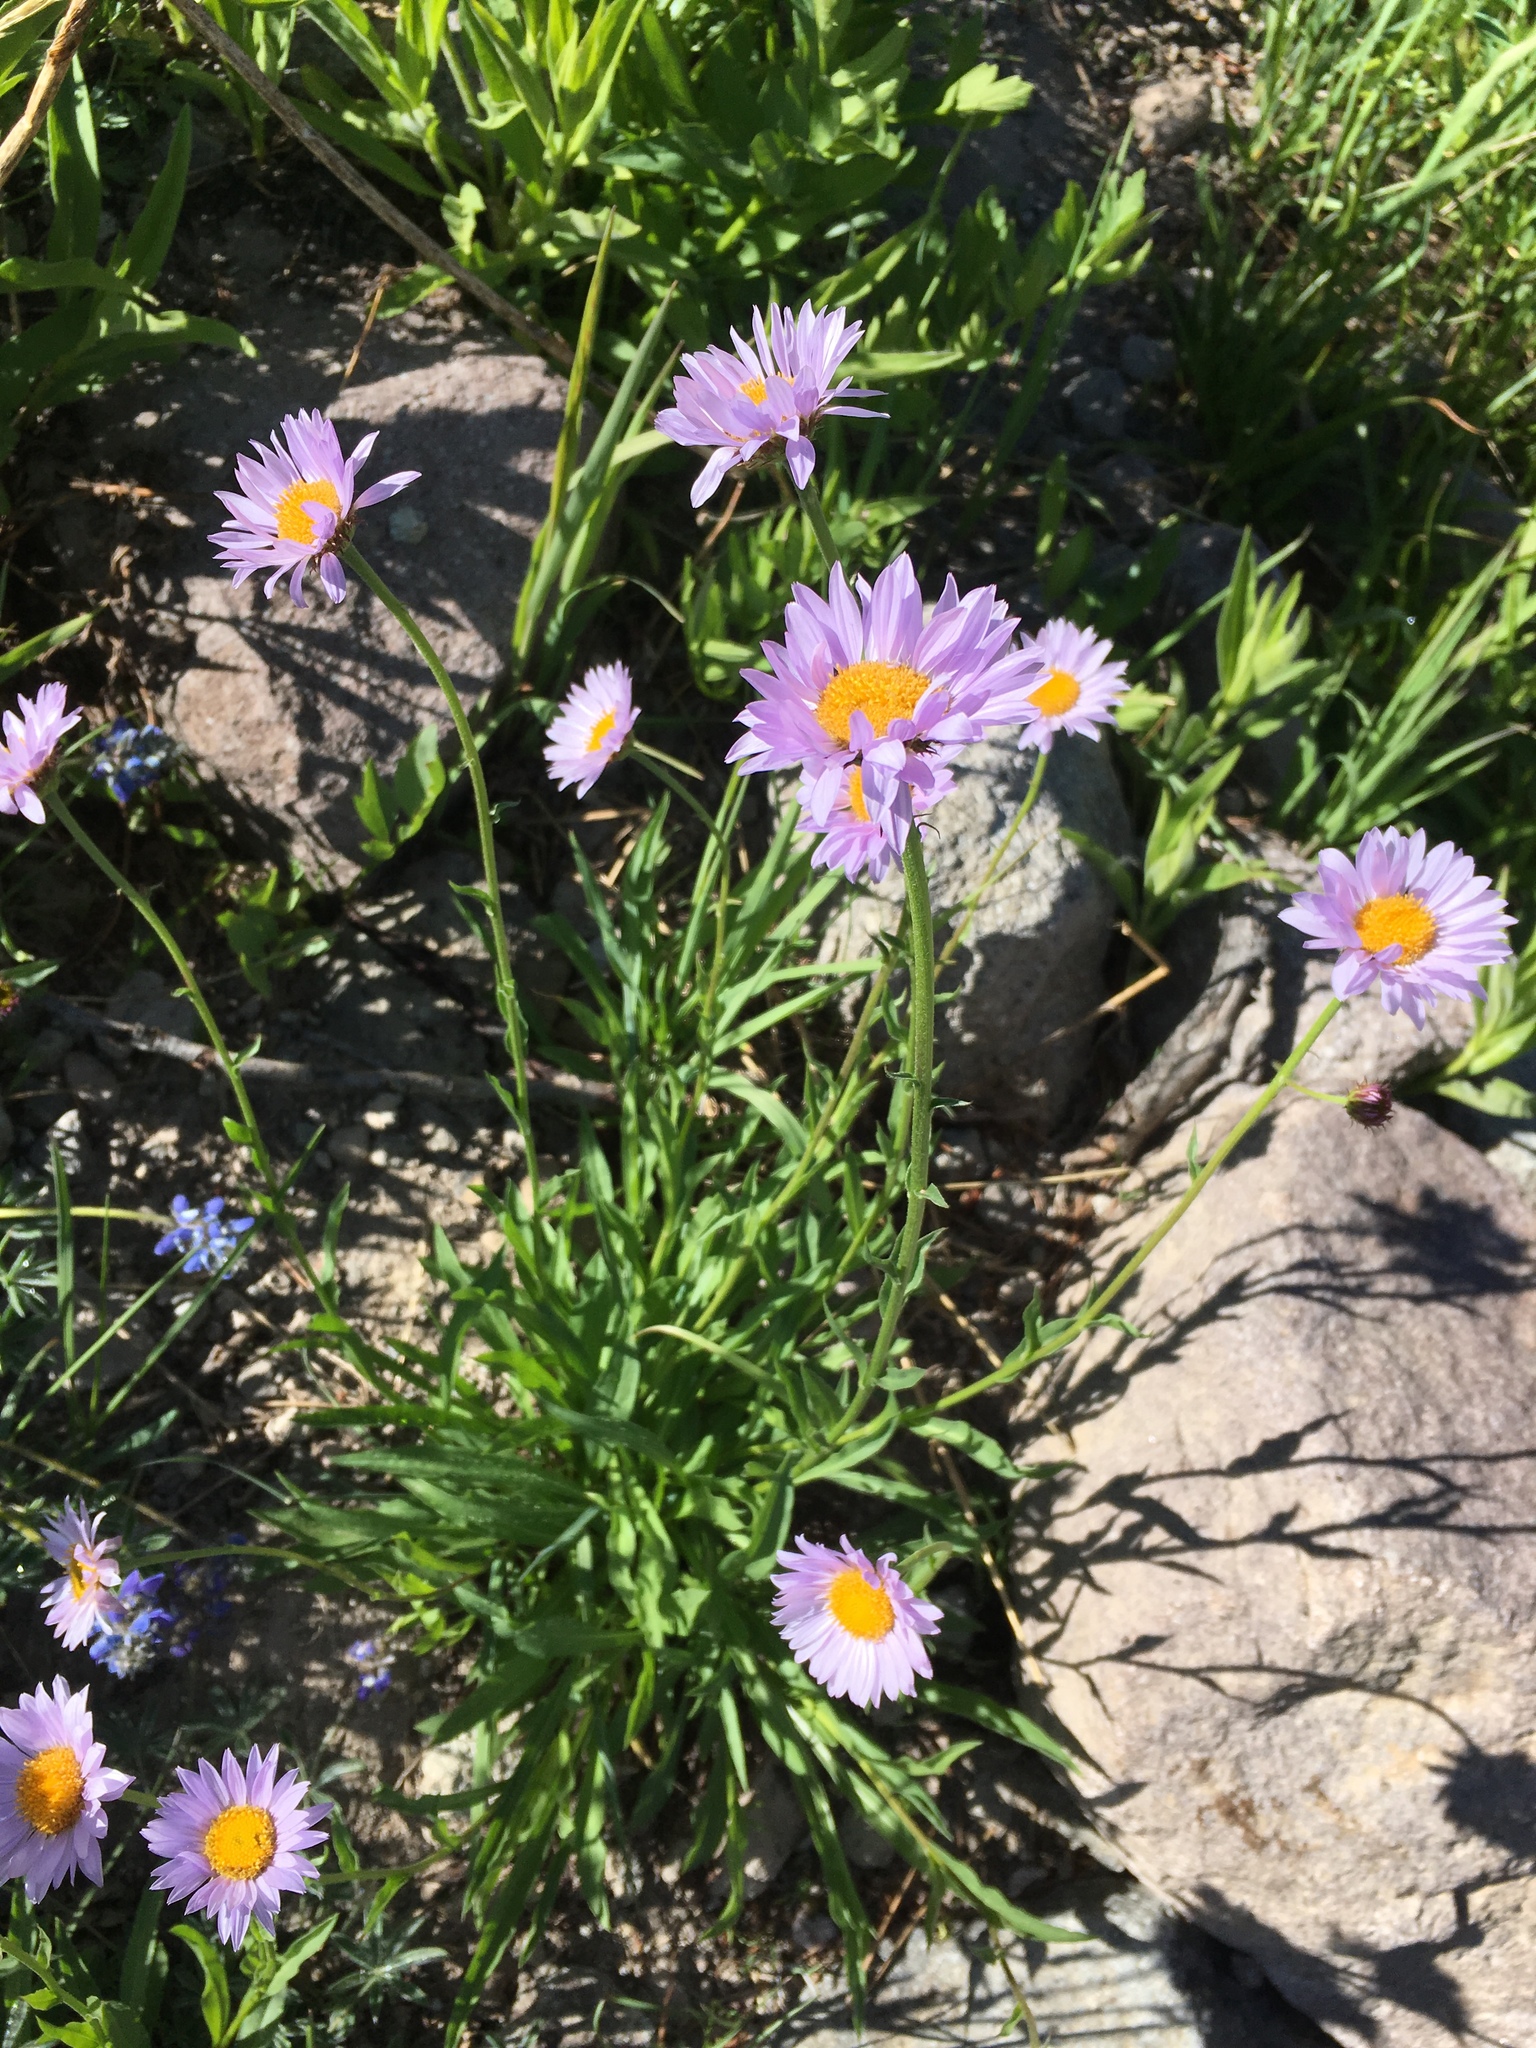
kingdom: Plantae
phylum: Tracheophyta
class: Magnoliopsida
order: Asterales
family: Asteraceae
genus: Erigeron
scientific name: Erigeron glacialis
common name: Subalpine fleabane
